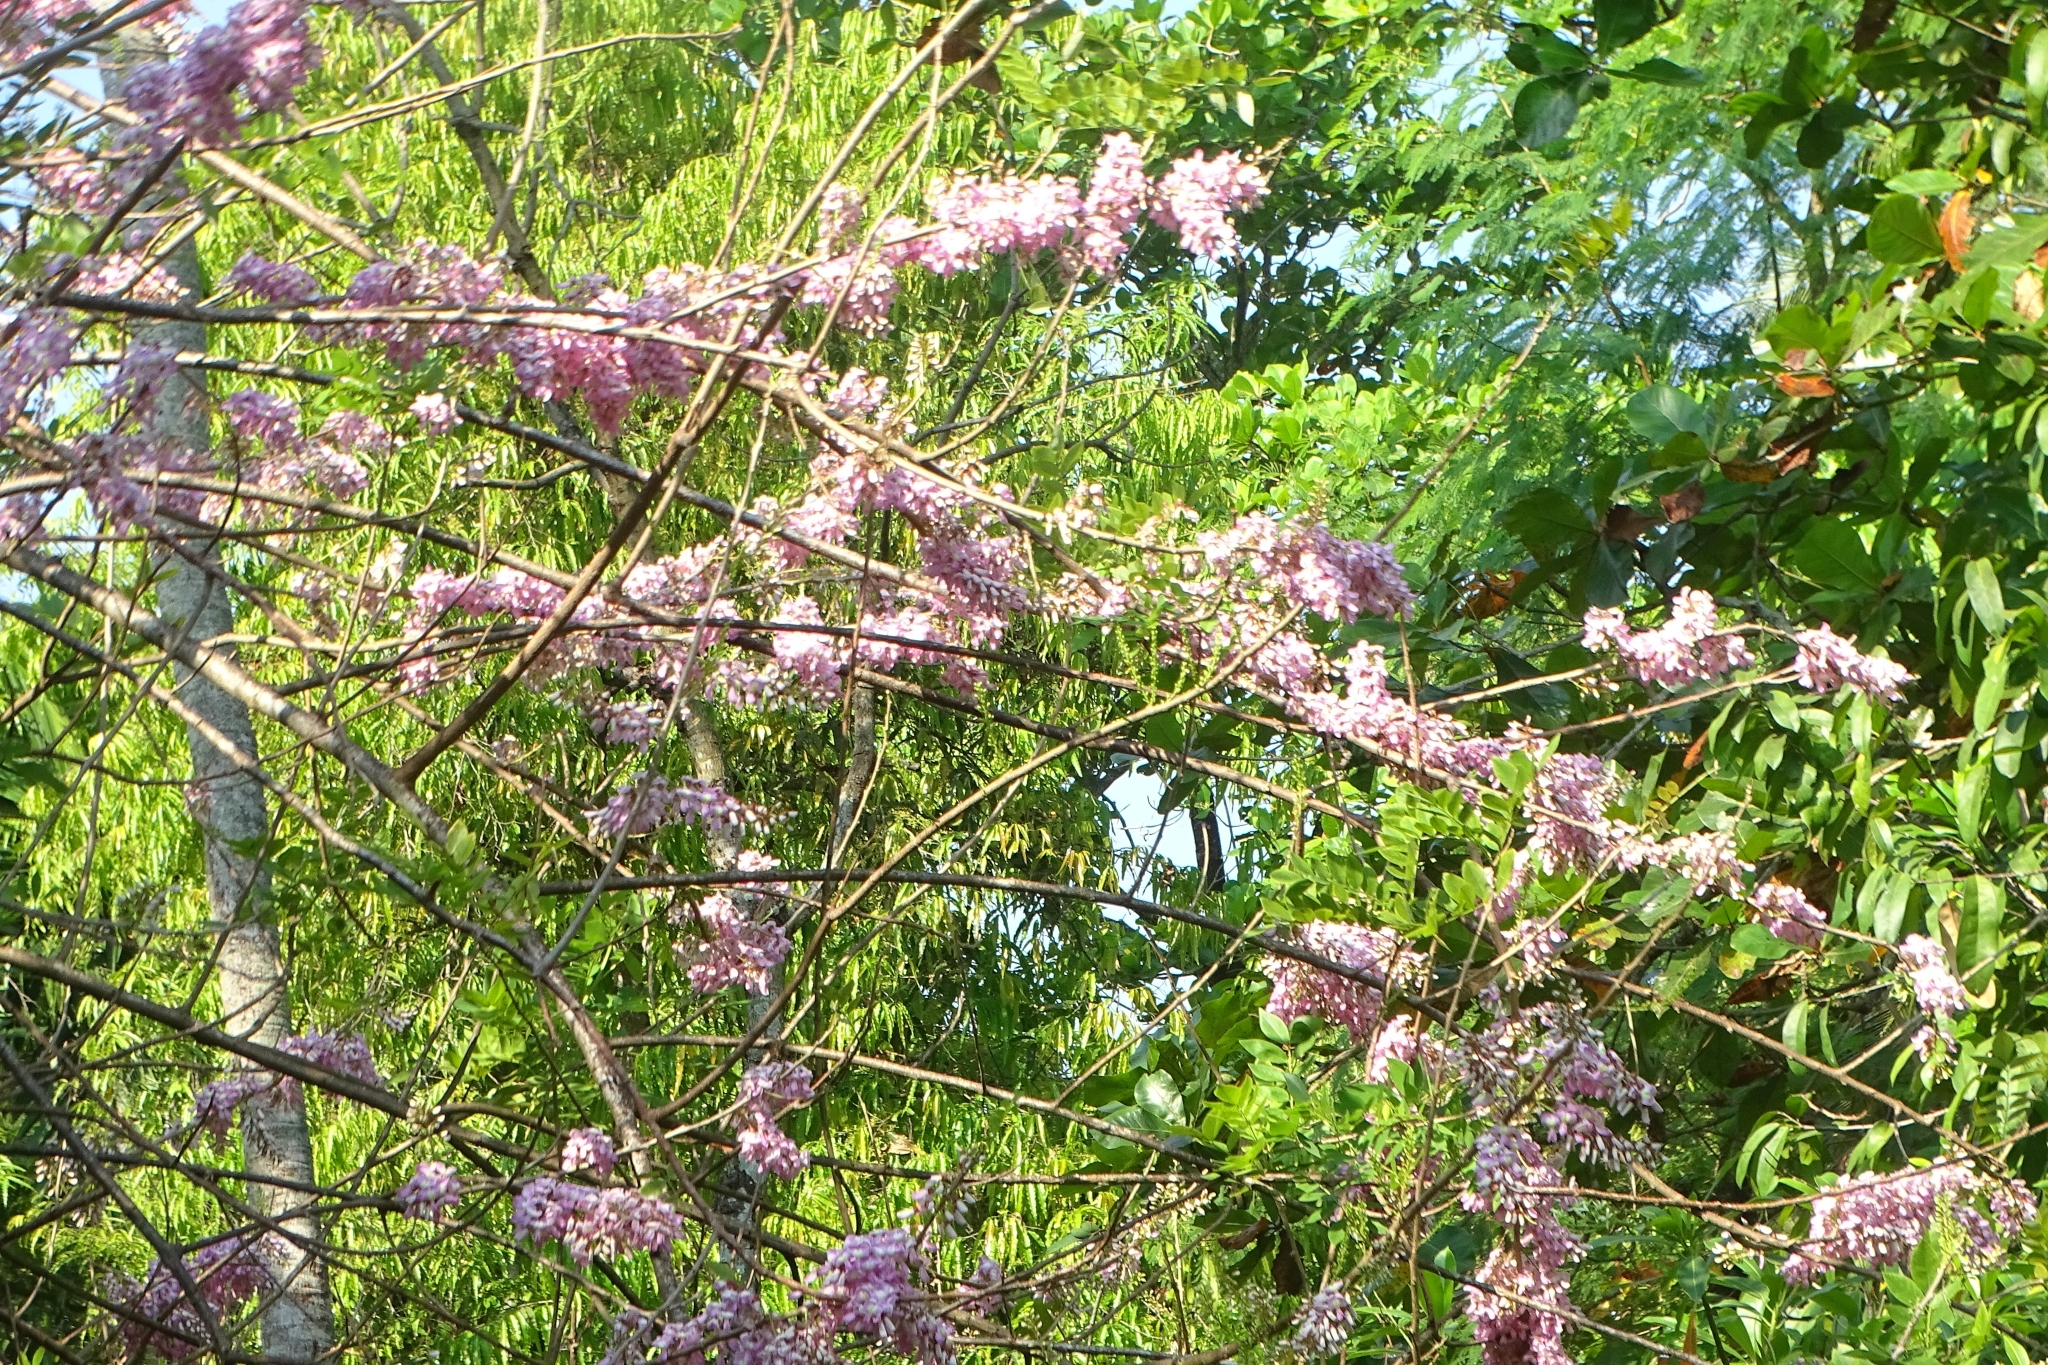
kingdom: Plantae
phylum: Tracheophyta
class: Magnoliopsida
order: Fabales
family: Fabaceae
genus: Gliricidia
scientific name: Gliricidia sepium
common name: Quickstick
